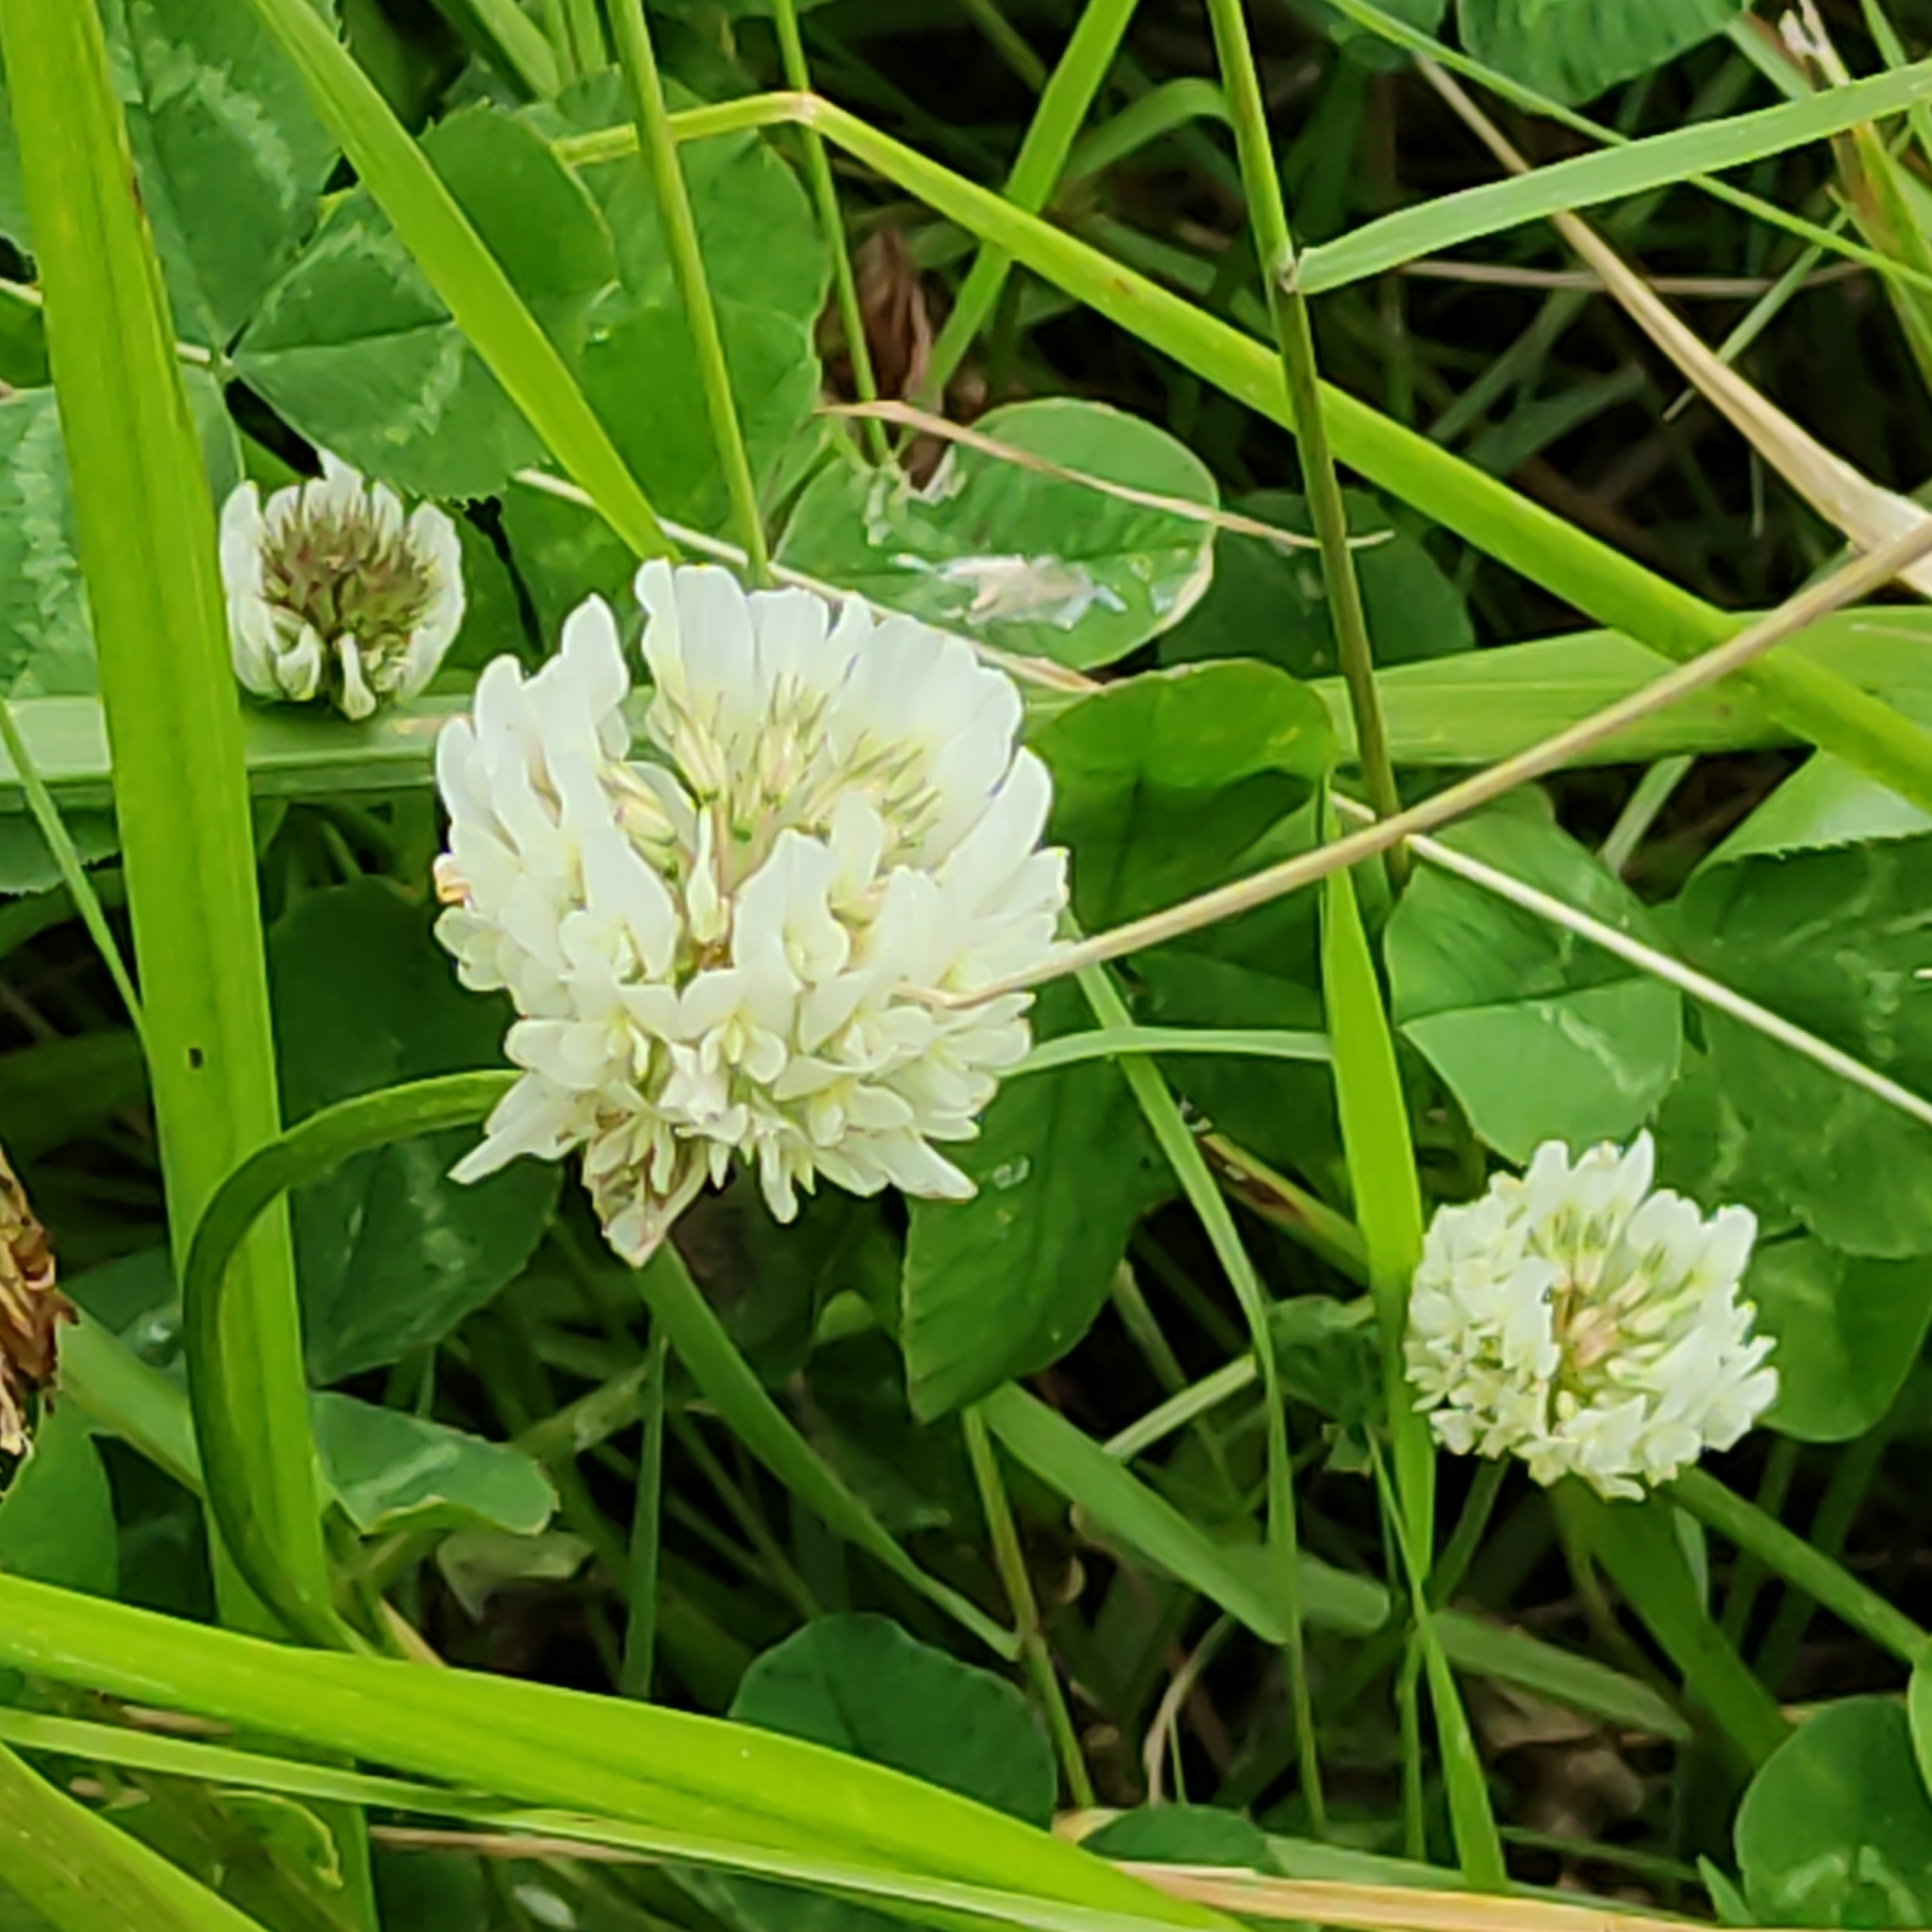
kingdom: Plantae
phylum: Tracheophyta
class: Magnoliopsida
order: Fabales
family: Fabaceae
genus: Trifolium
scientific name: Trifolium repens
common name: White clover
